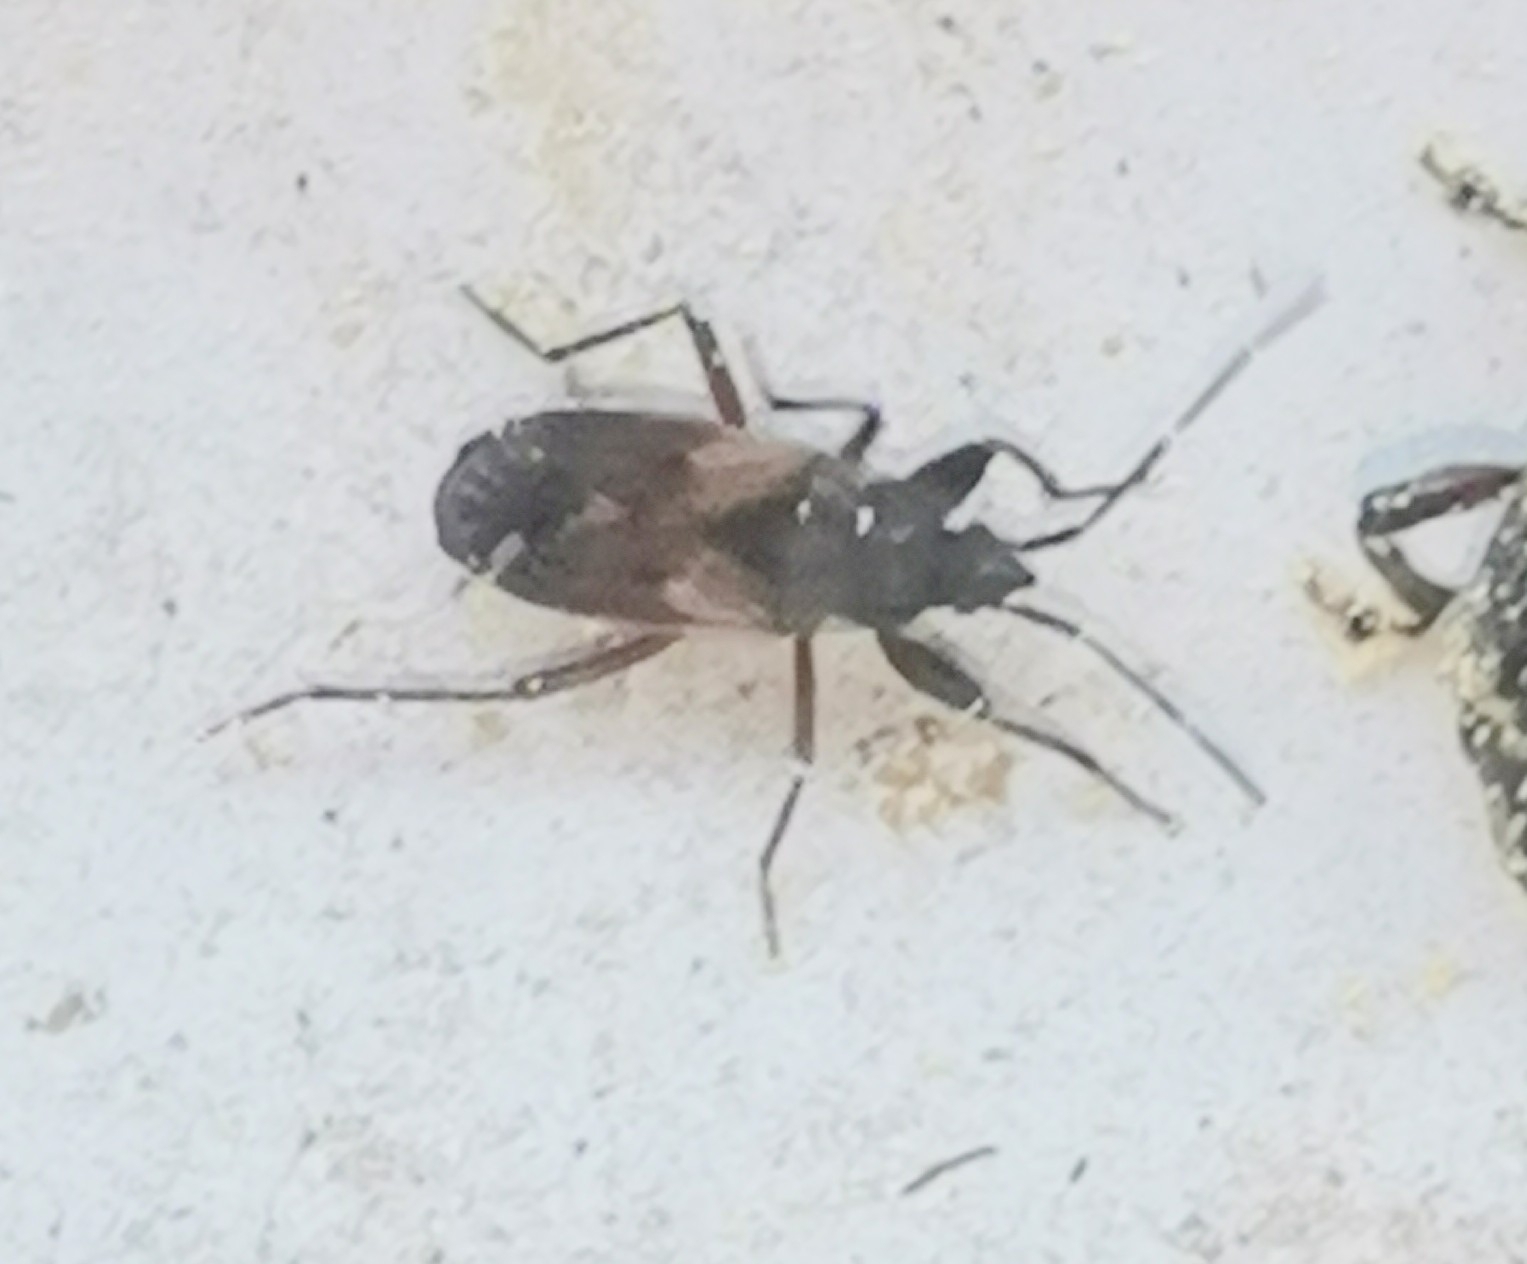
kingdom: Animalia
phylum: Arthropoda
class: Insecta
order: Hemiptera
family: Rhyparochromidae
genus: Eremocoris
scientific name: Eremocoris abietis
